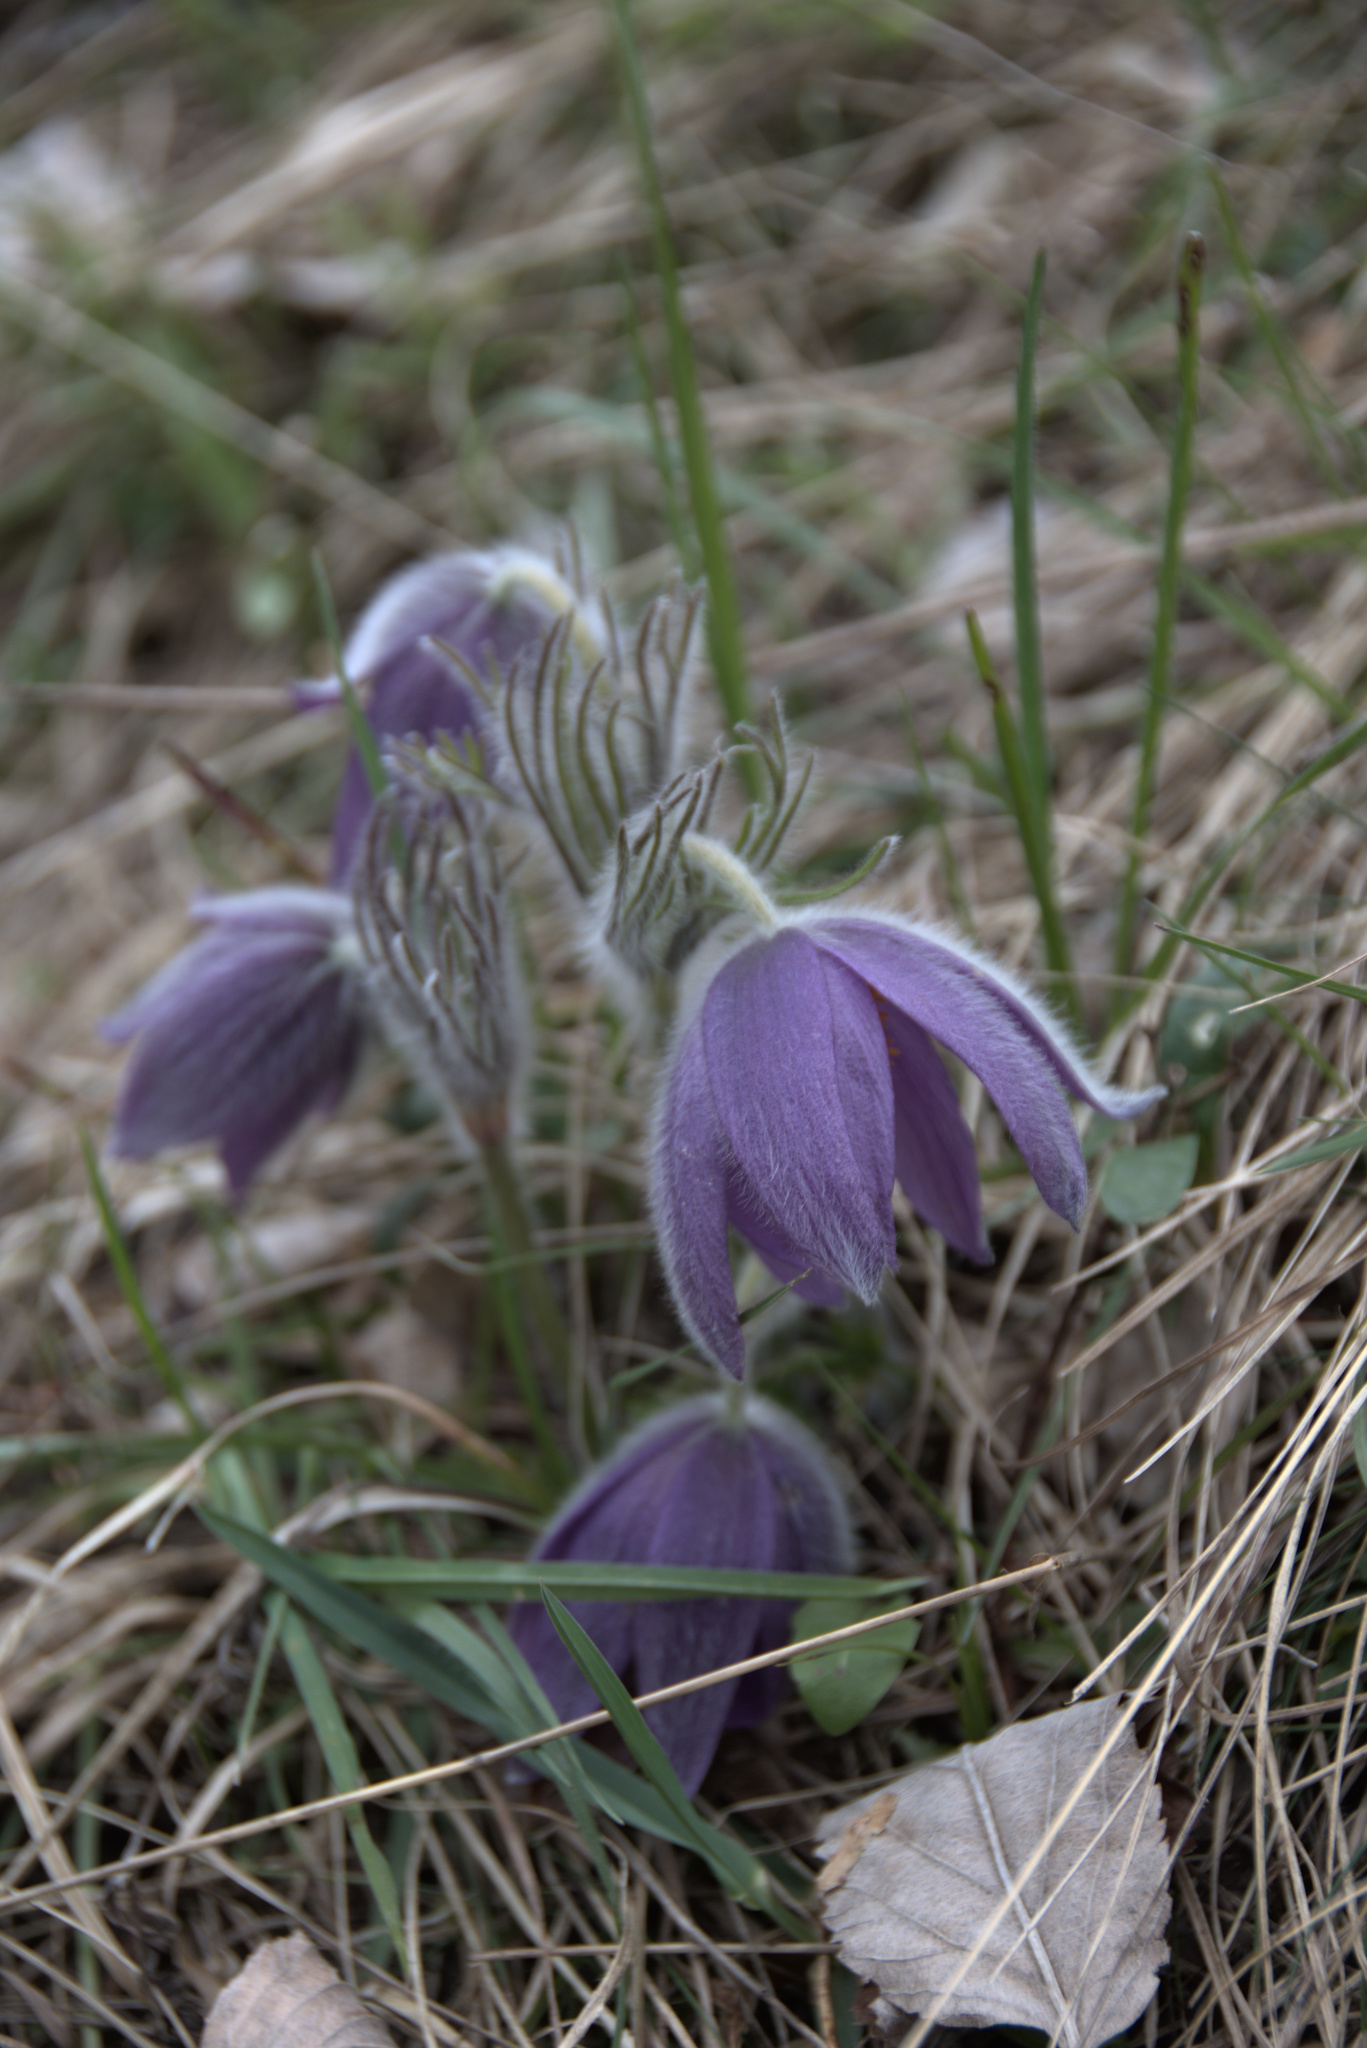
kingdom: Plantae
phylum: Tracheophyta
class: Magnoliopsida
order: Ranunculales
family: Ranunculaceae
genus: Pulsatilla
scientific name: Pulsatilla vulgaris
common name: Pasqueflower
